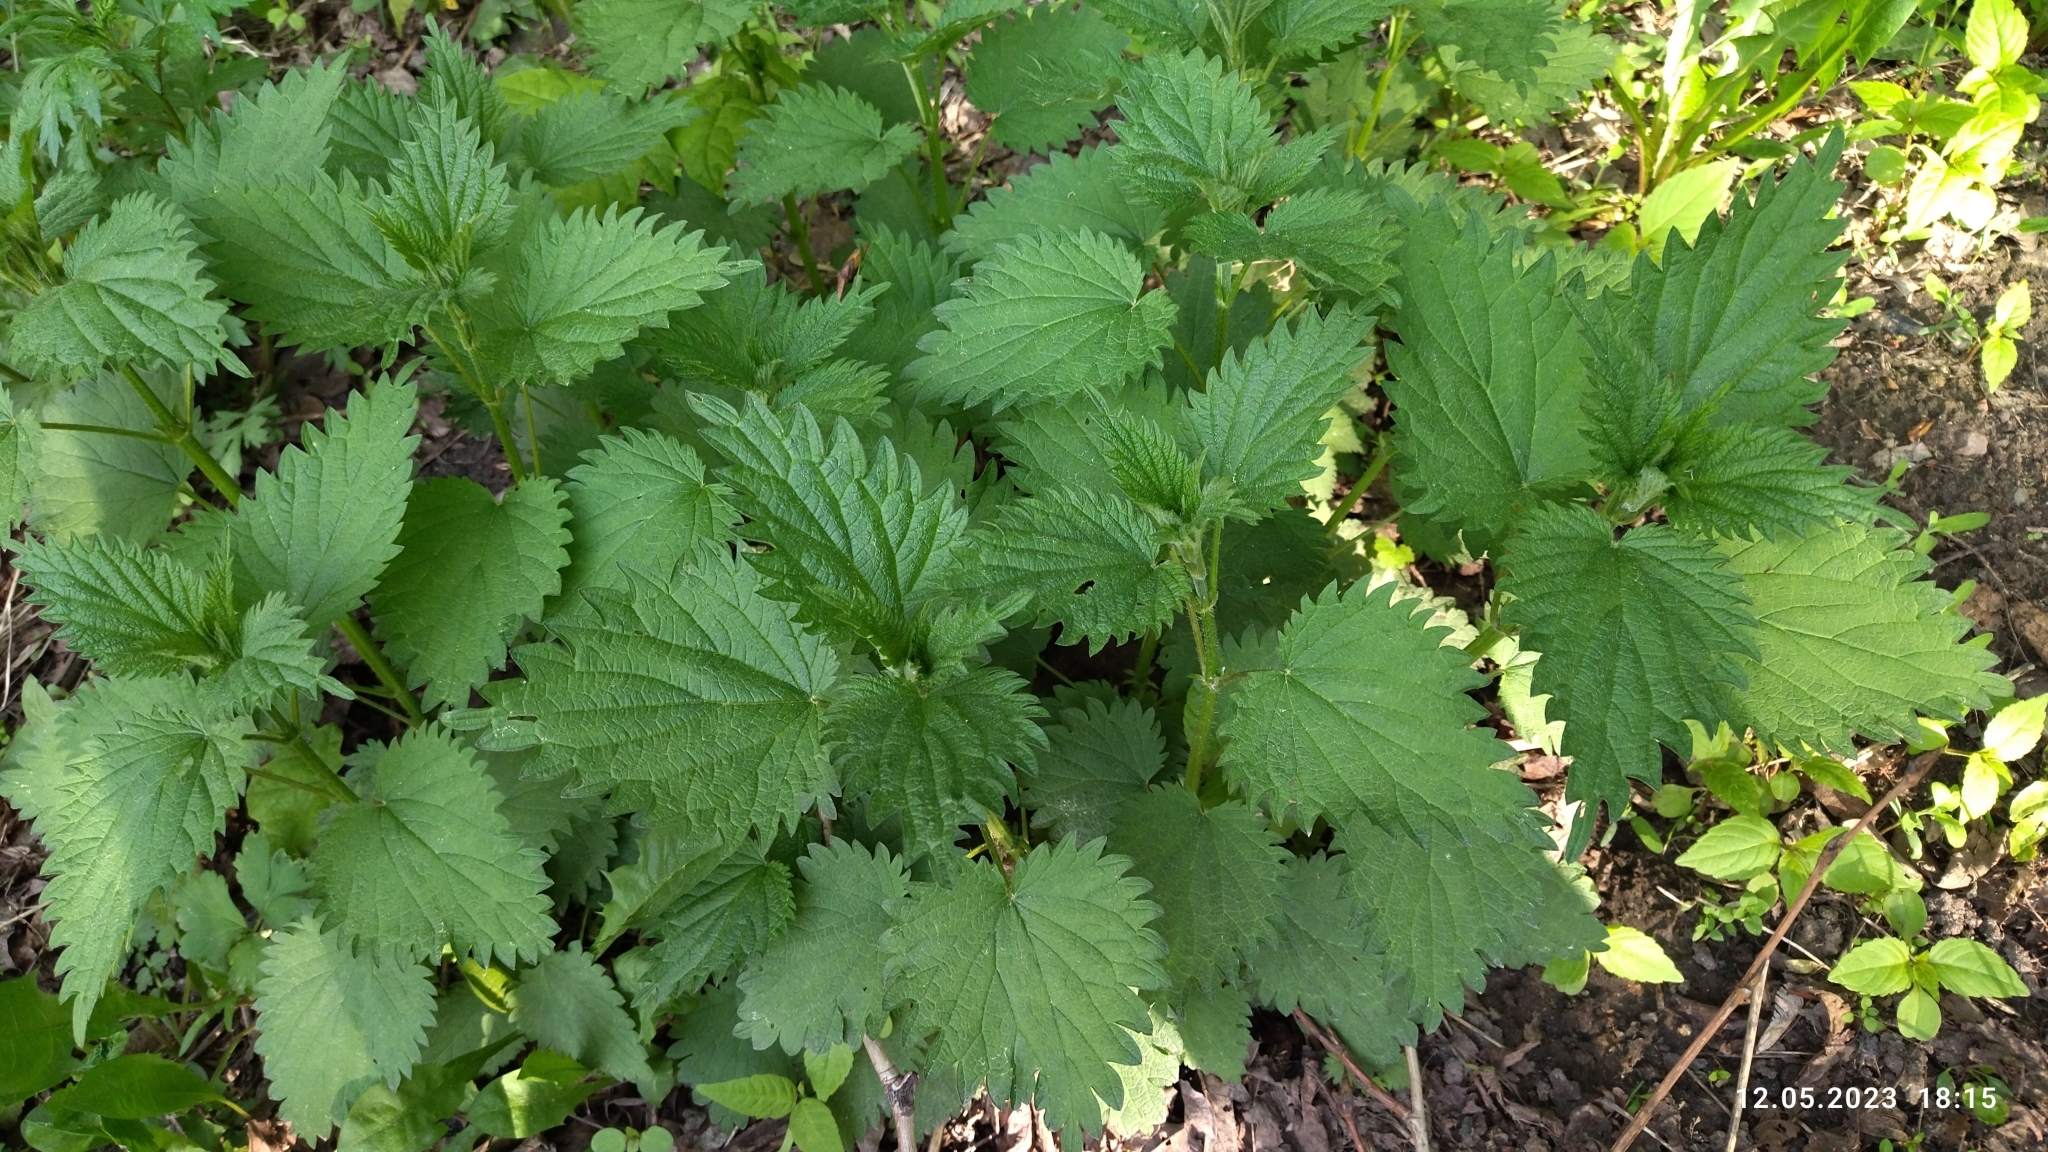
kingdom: Plantae
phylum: Tracheophyta
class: Magnoliopsida
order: Rosales
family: Urticaceae
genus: Urtica
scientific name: Urtica dioica
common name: Common nettle
